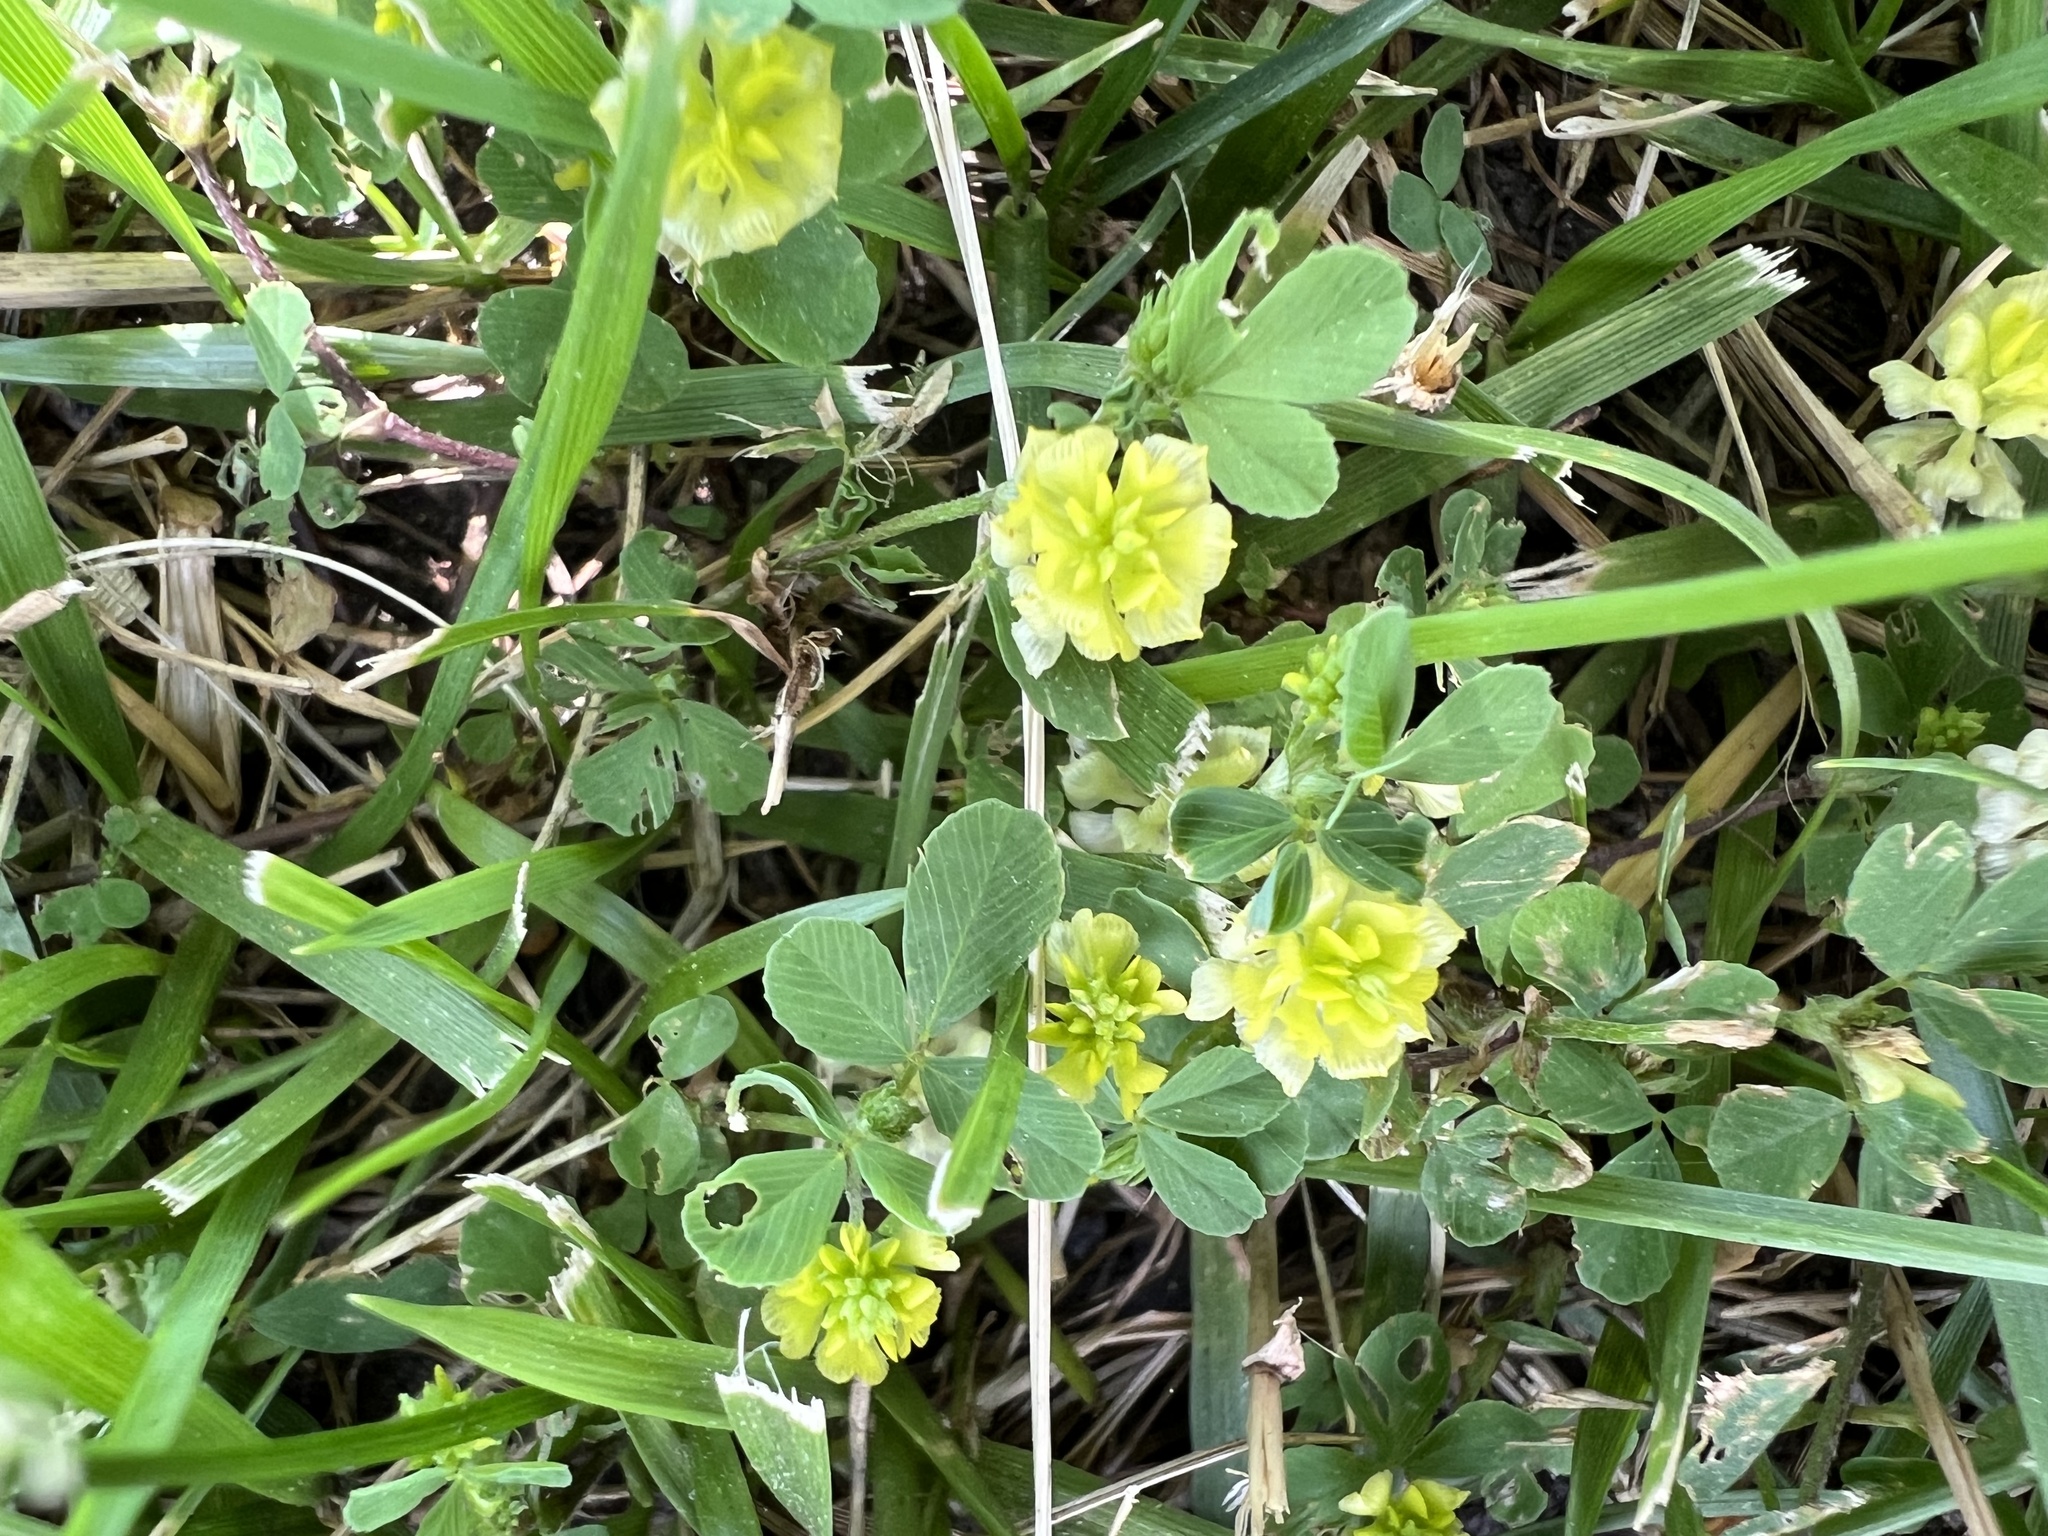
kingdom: Plantae
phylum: Tracheophyta
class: Magnoliopsida
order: Fabales
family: Fabaceae
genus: Trifolium
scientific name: Trifolium campestre
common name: Field clover
